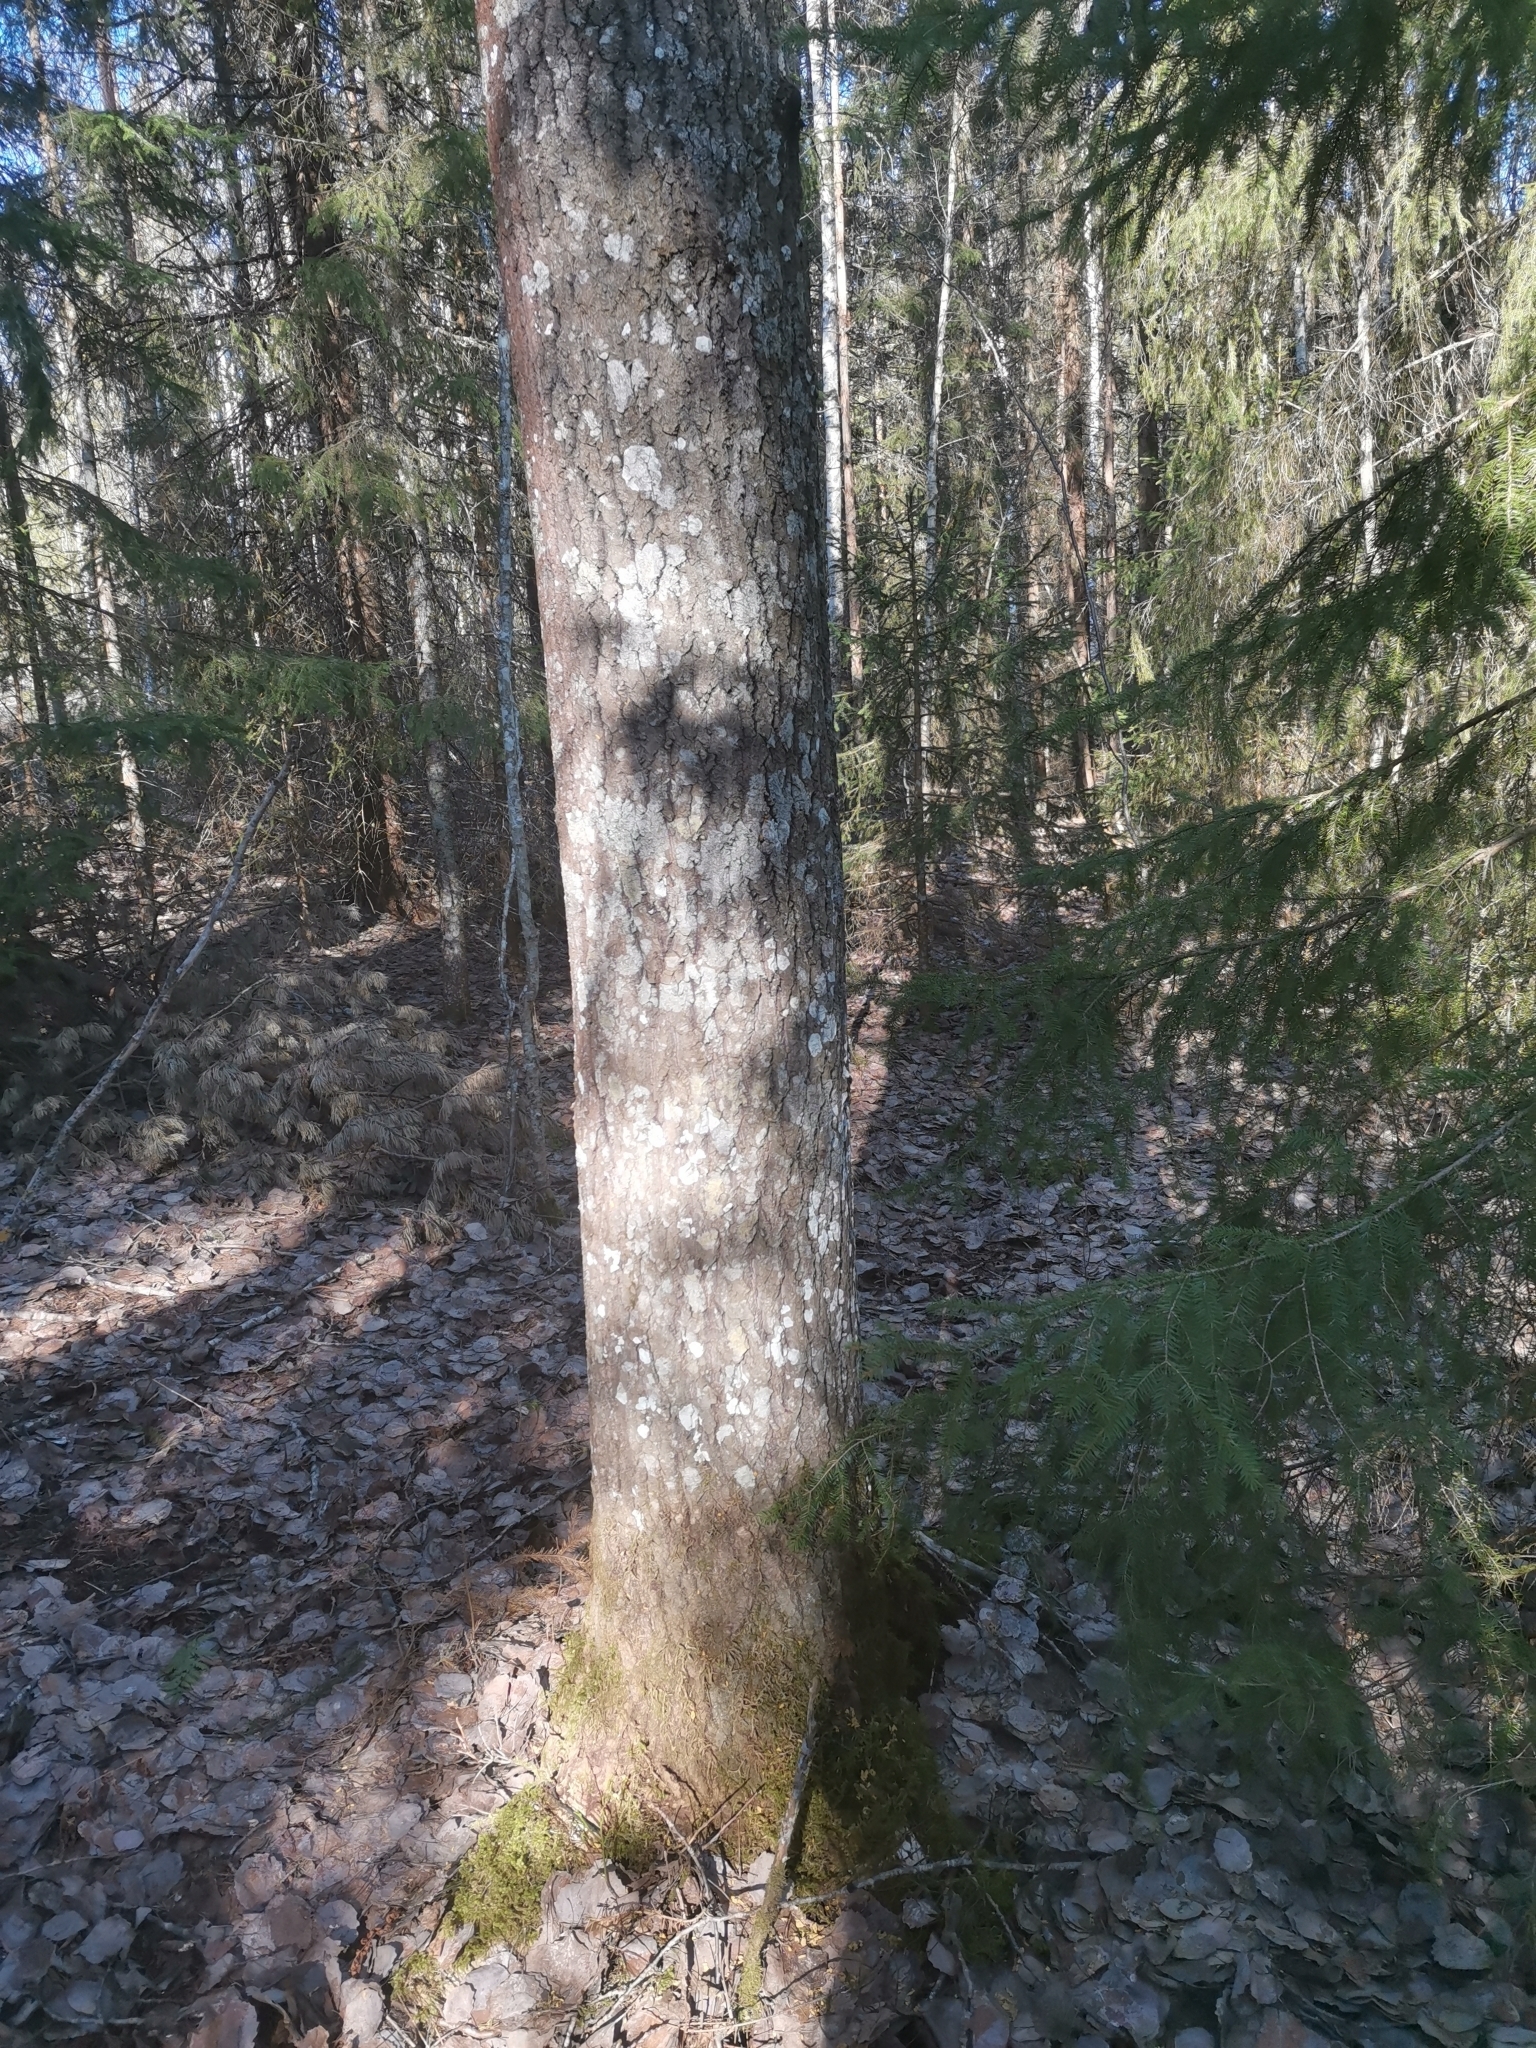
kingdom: Animalia
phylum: Chordata
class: Mammalia
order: Rodentia
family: Sciuridae
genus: Pteromys
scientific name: Pteromys volans
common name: Siberian flying squirrel
